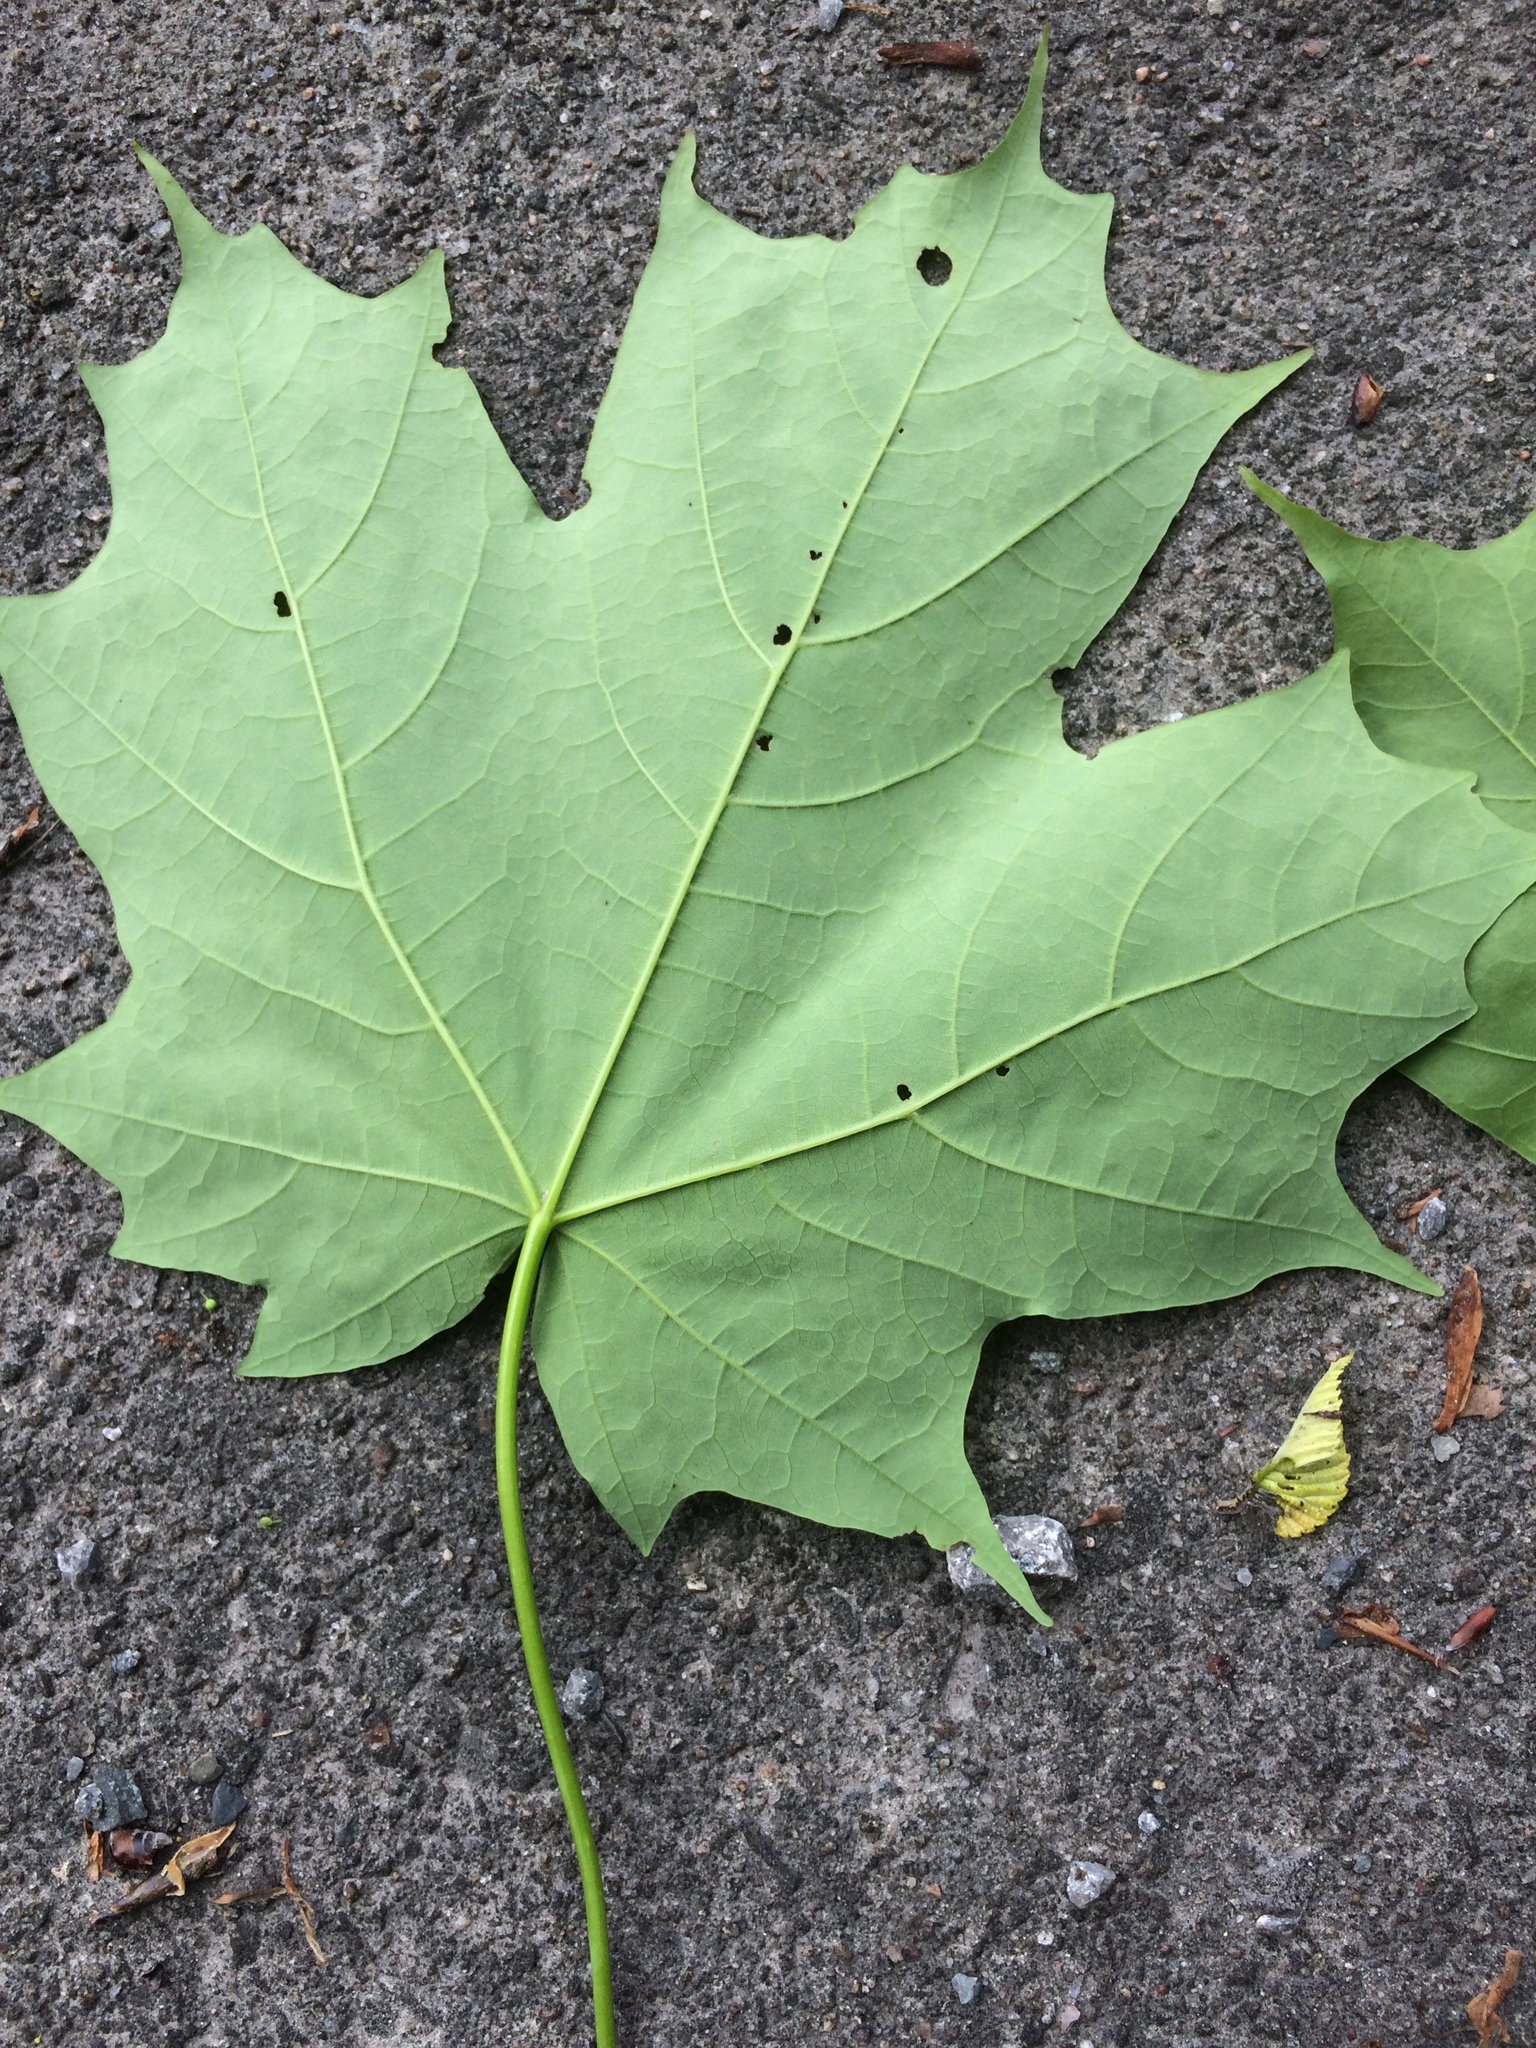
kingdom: Plantae
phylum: Tracheophyta
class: Magnoliopsida
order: Sapindales
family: Sapindaceae
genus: Acer
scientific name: Acer saccharum
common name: Sugar maple
